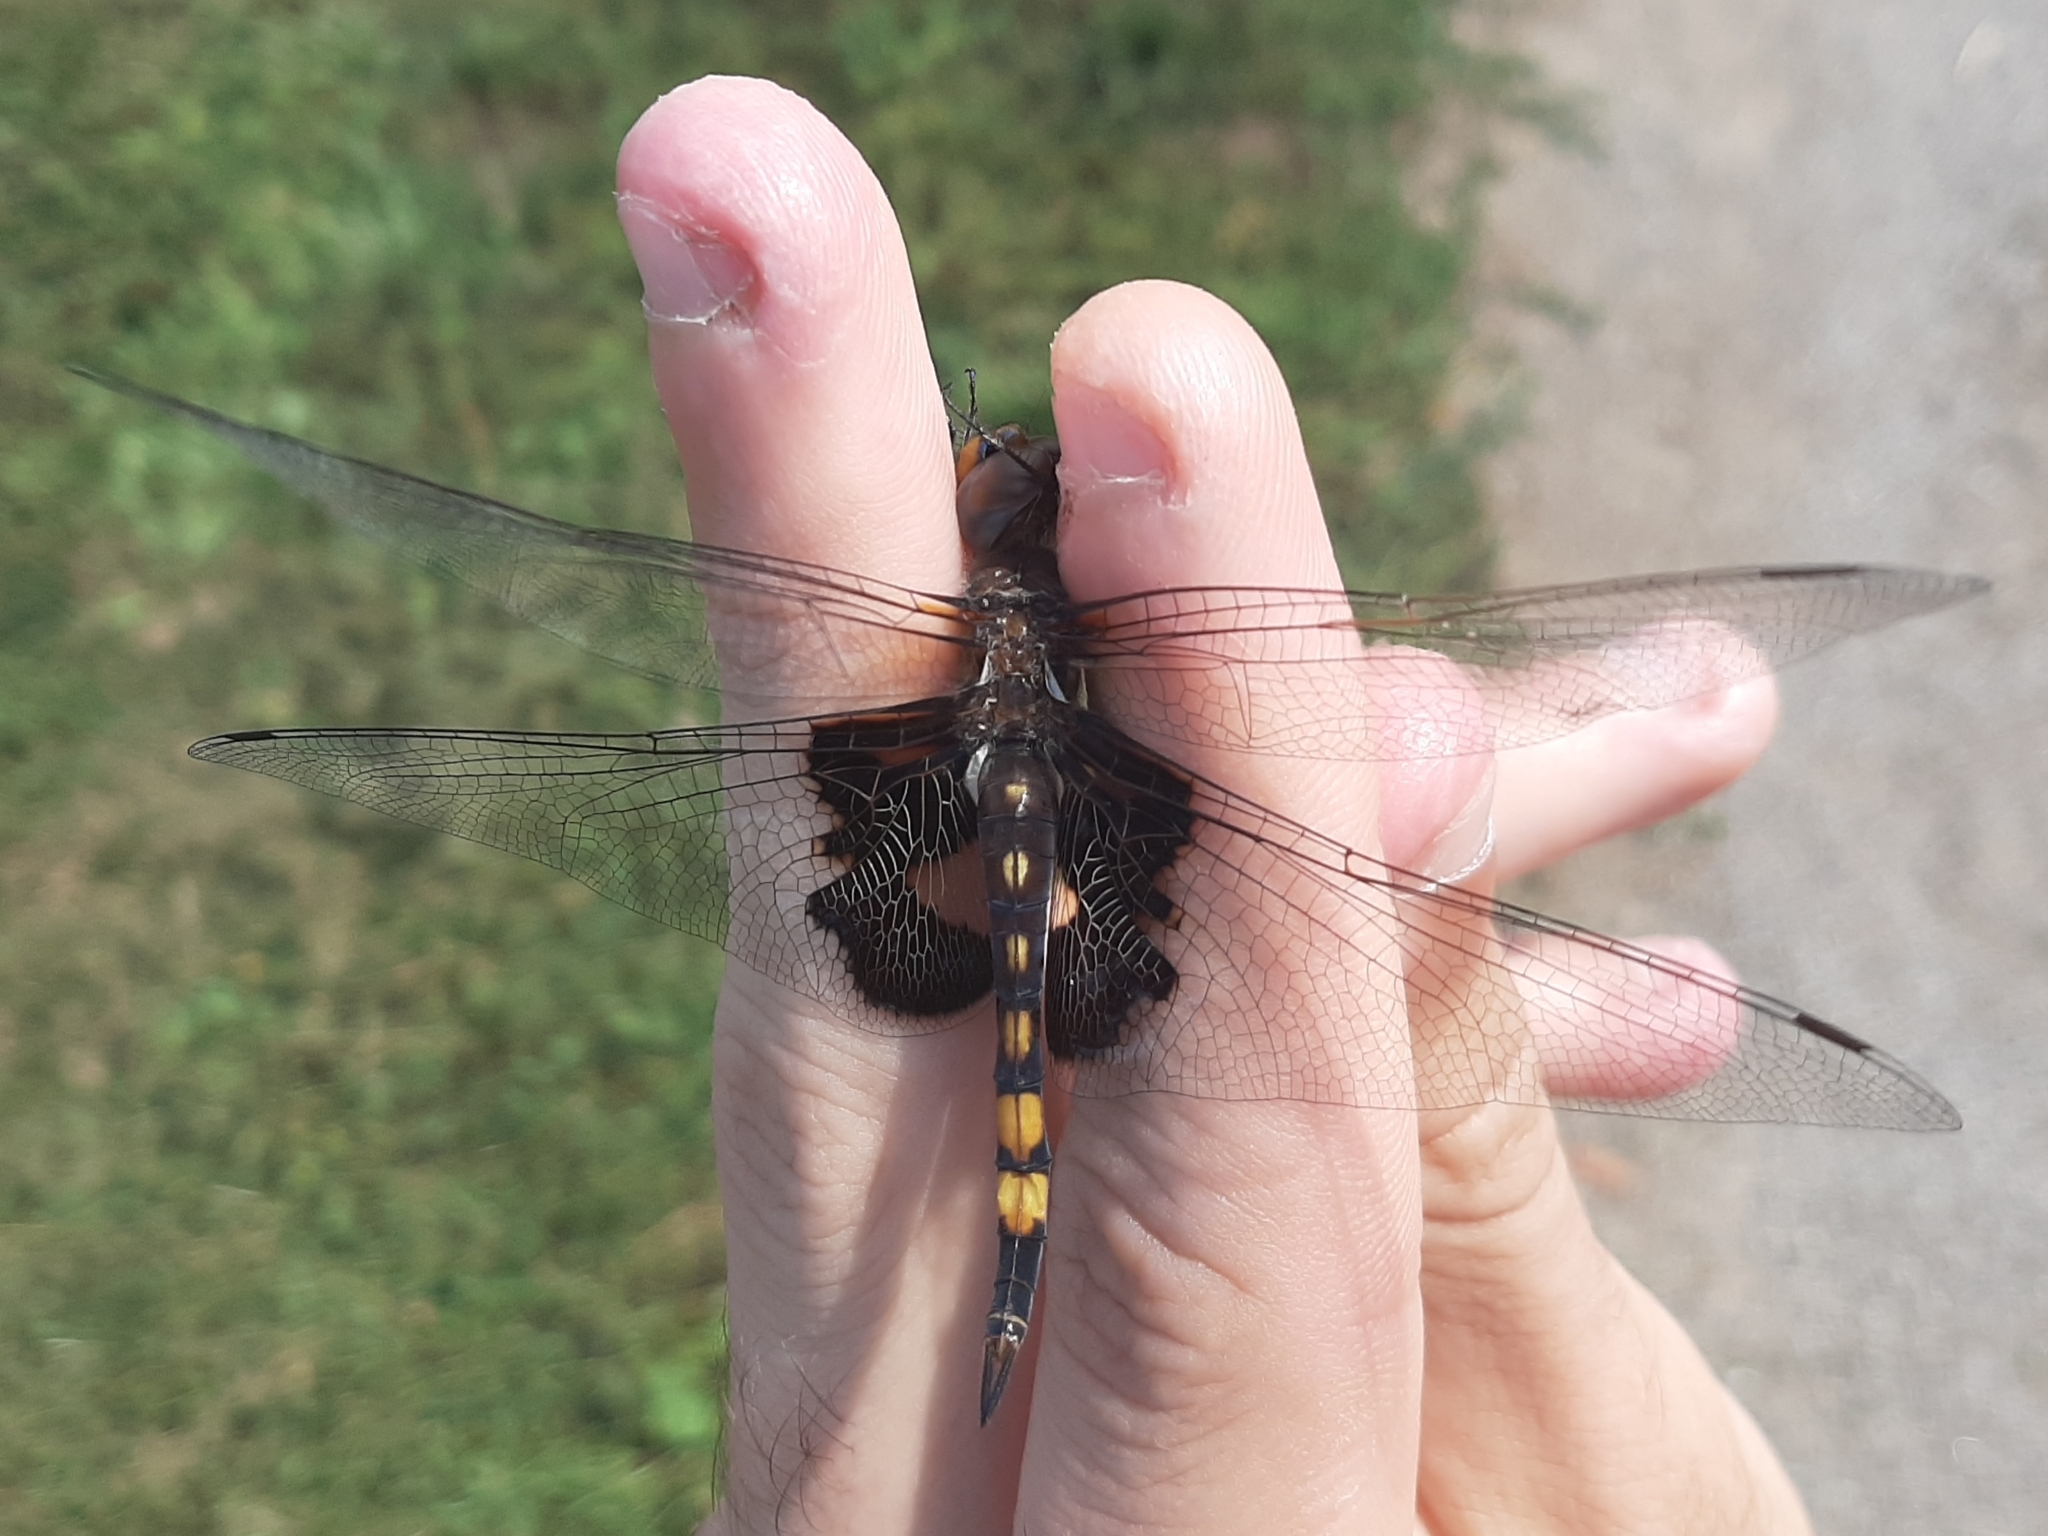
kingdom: Animalia
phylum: Arthropoda
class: Insecta
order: Odonata
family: Libellulidae
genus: Tramea
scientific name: Tramea lacerata
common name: Black saddlebags
